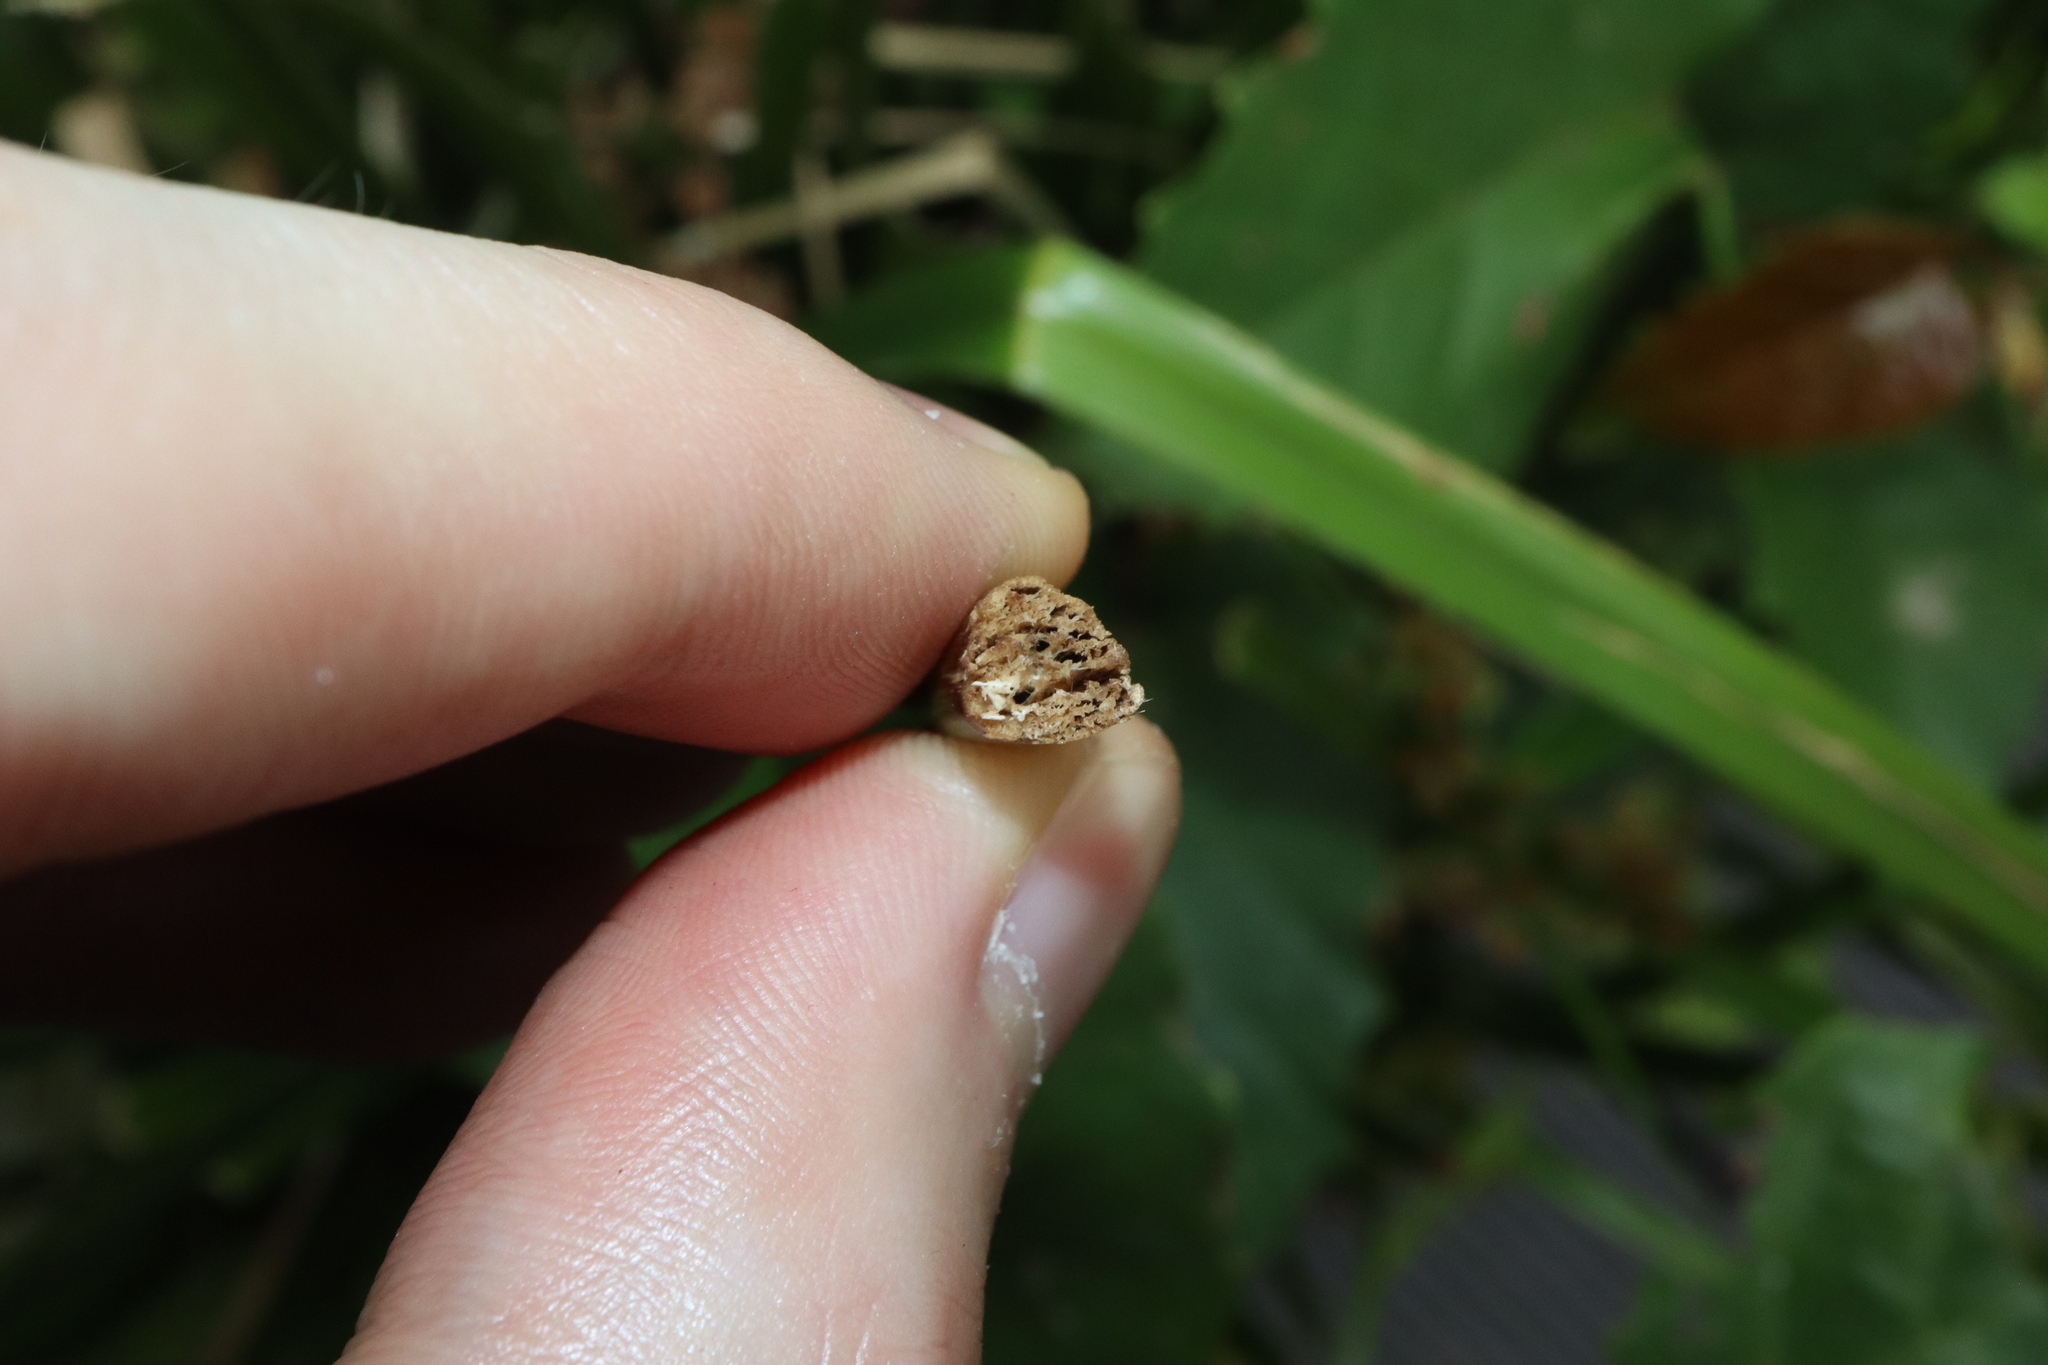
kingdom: Plantae
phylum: Tracheophyta
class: Liliopsida
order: Poales
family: Cyperaceae
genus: Cyperus
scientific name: Cyperus vorsteri
